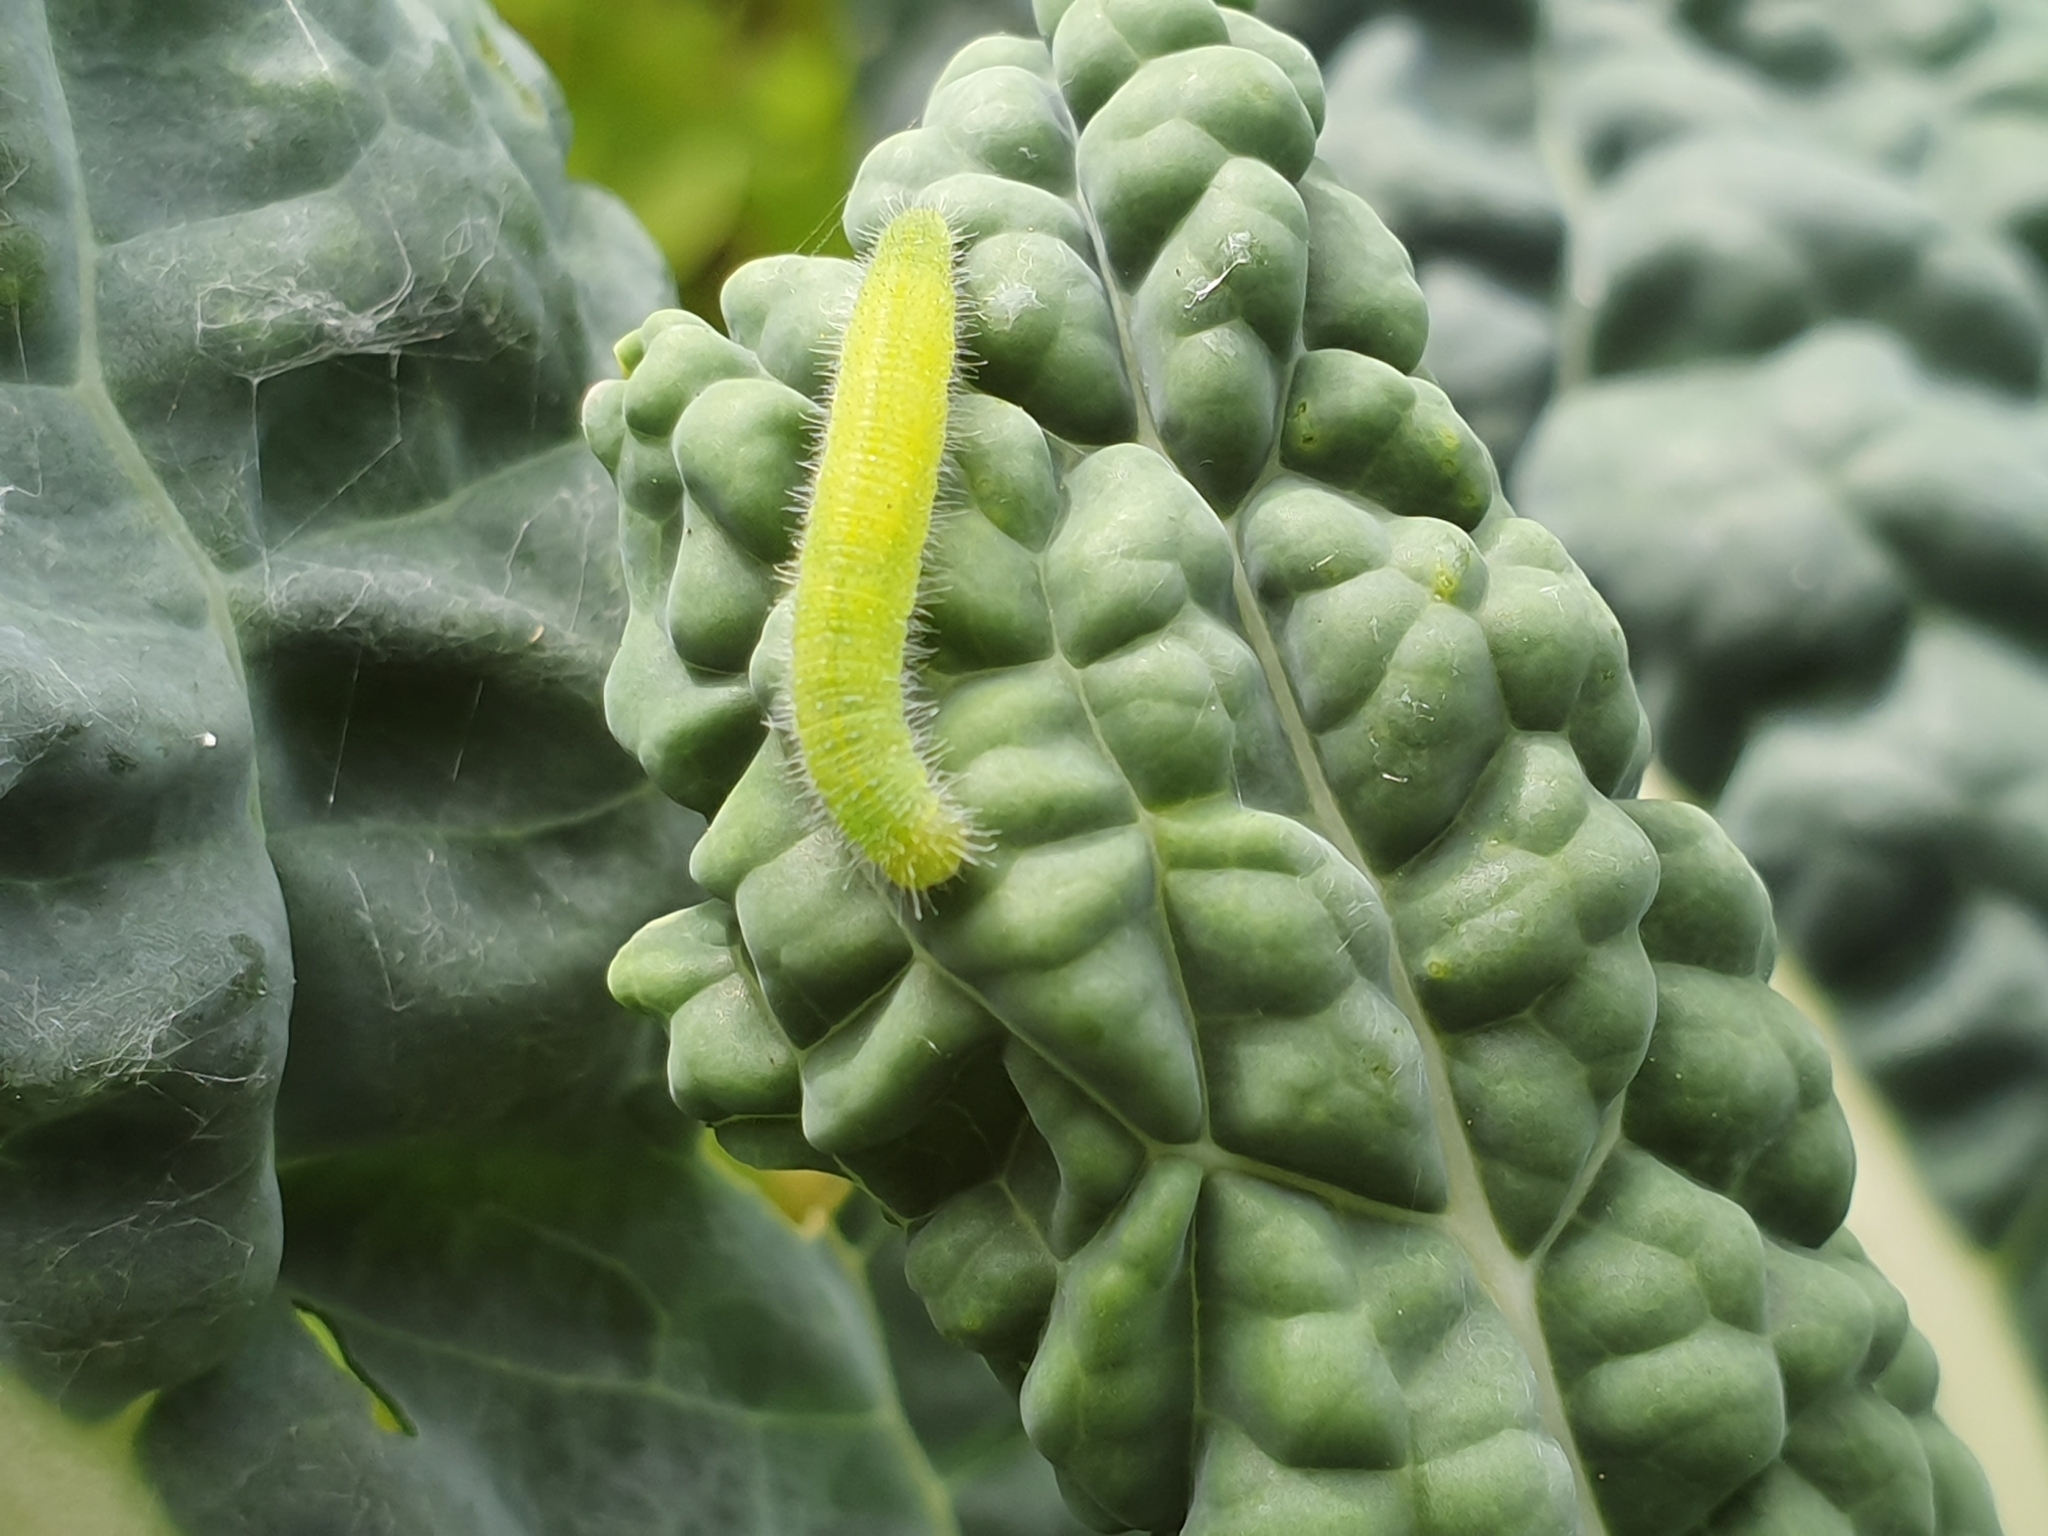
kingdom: Animalia
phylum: Arthropoda
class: Insecta
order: Lepidoptera
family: Pieridae
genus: Pieris
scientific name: Pieris rapae
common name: Small white
